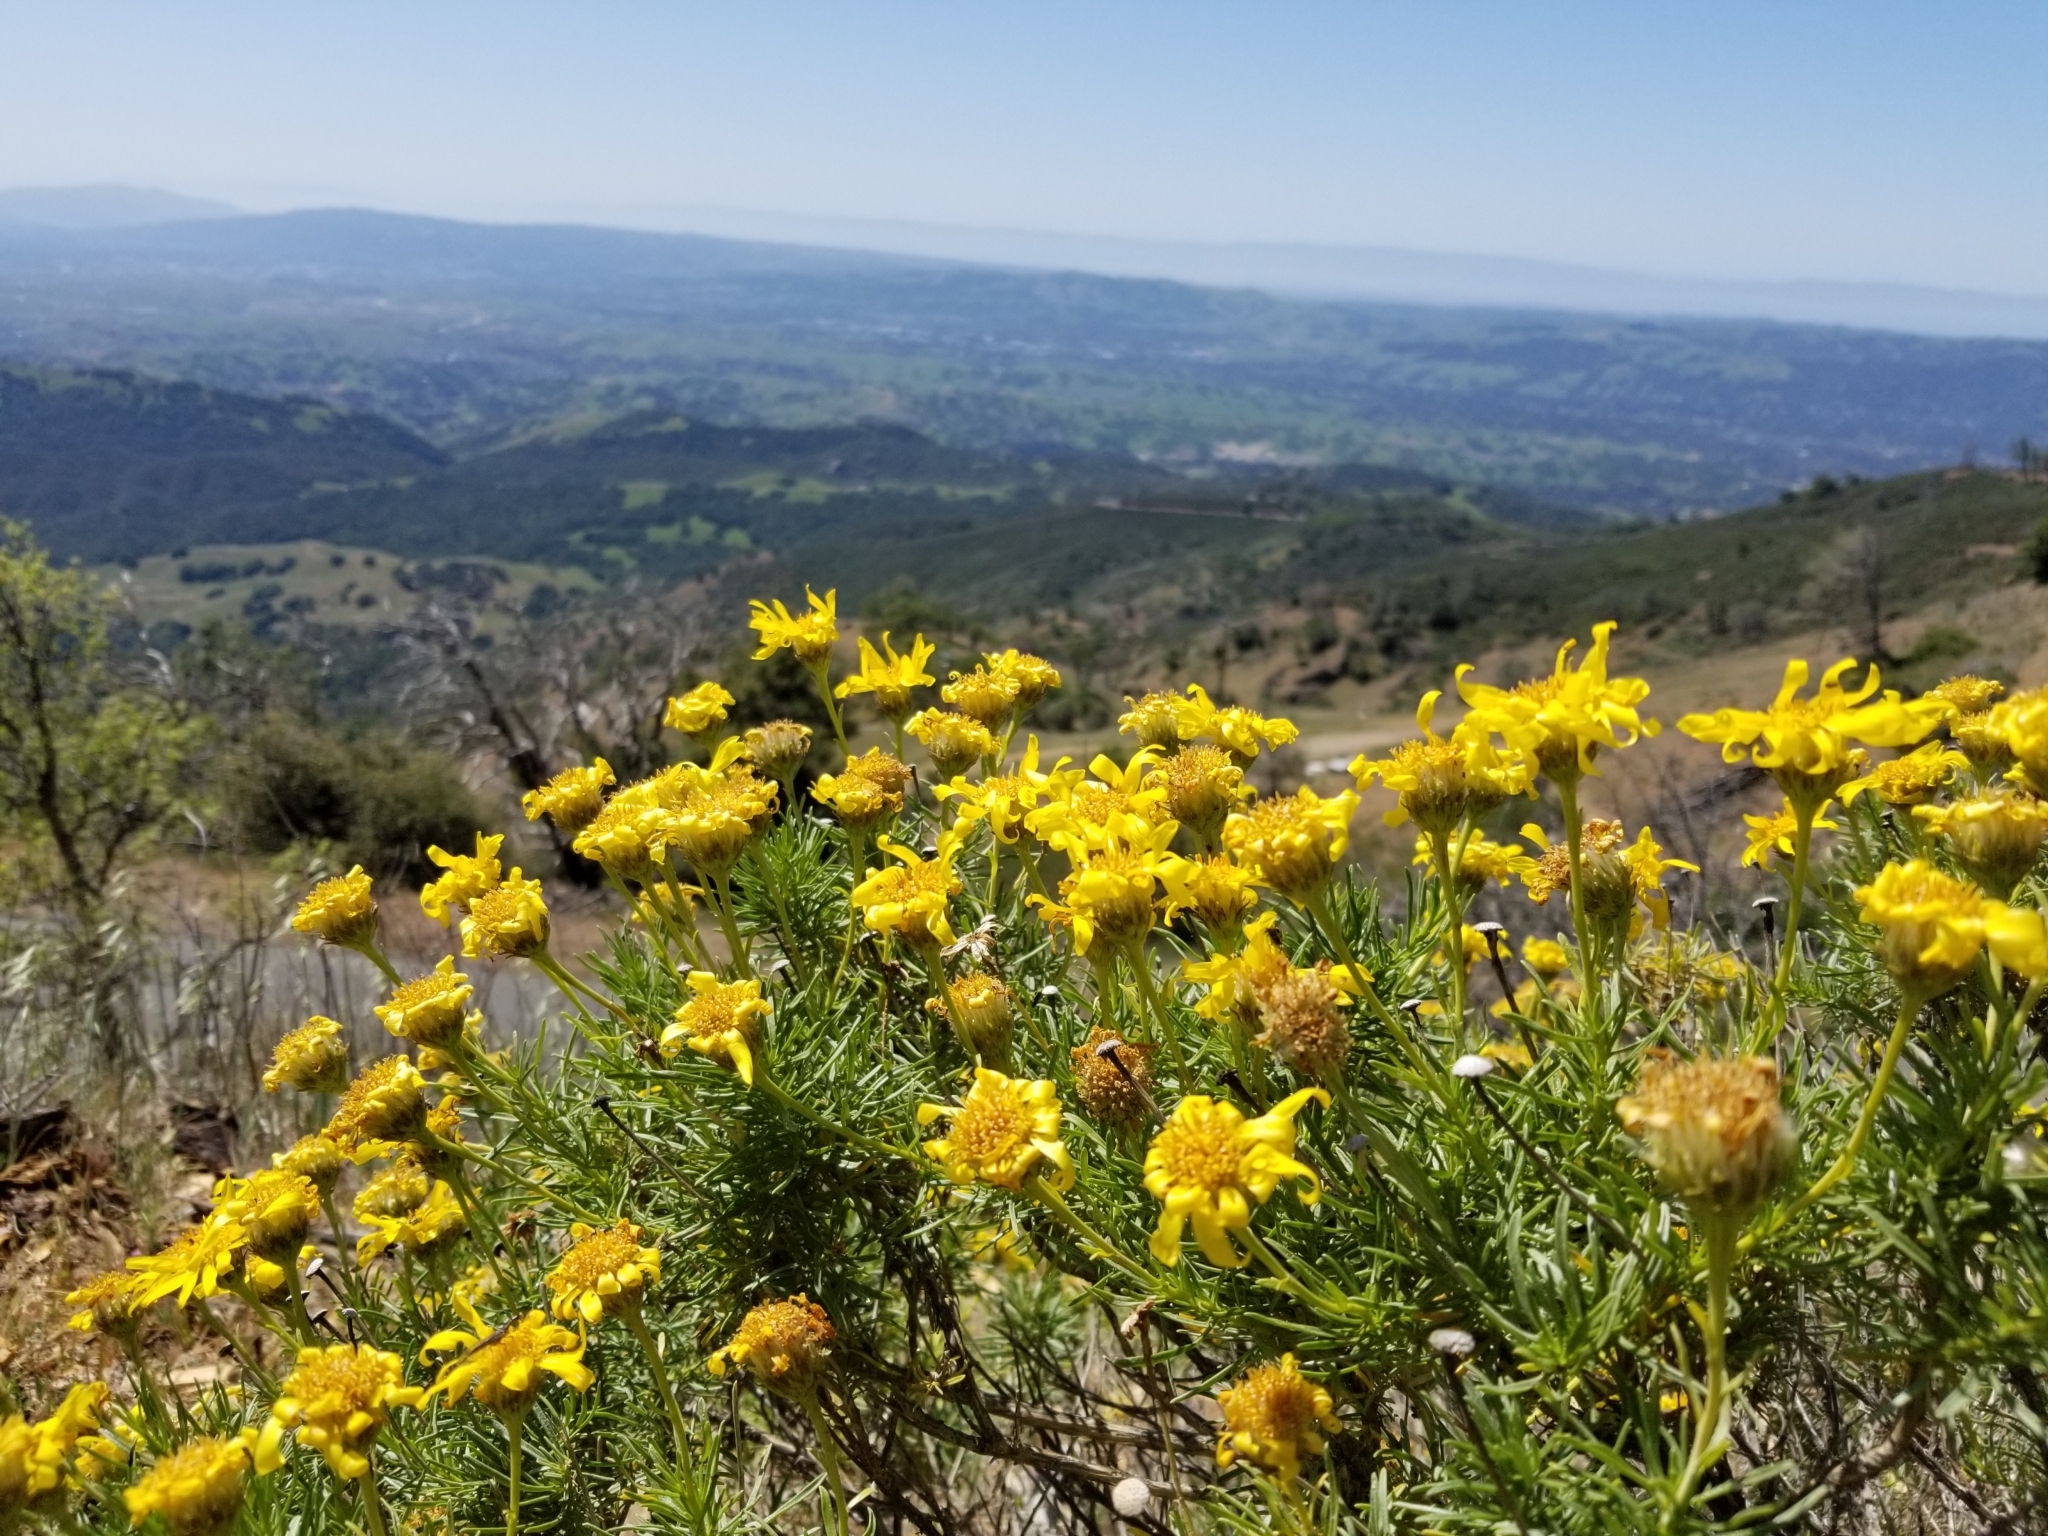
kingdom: Plantae
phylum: Tracheophyta
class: Magnoliopsida
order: Asterales
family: Asteraceae
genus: Ericameria
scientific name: Ericameria linearifolia
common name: Interior goldenbush
